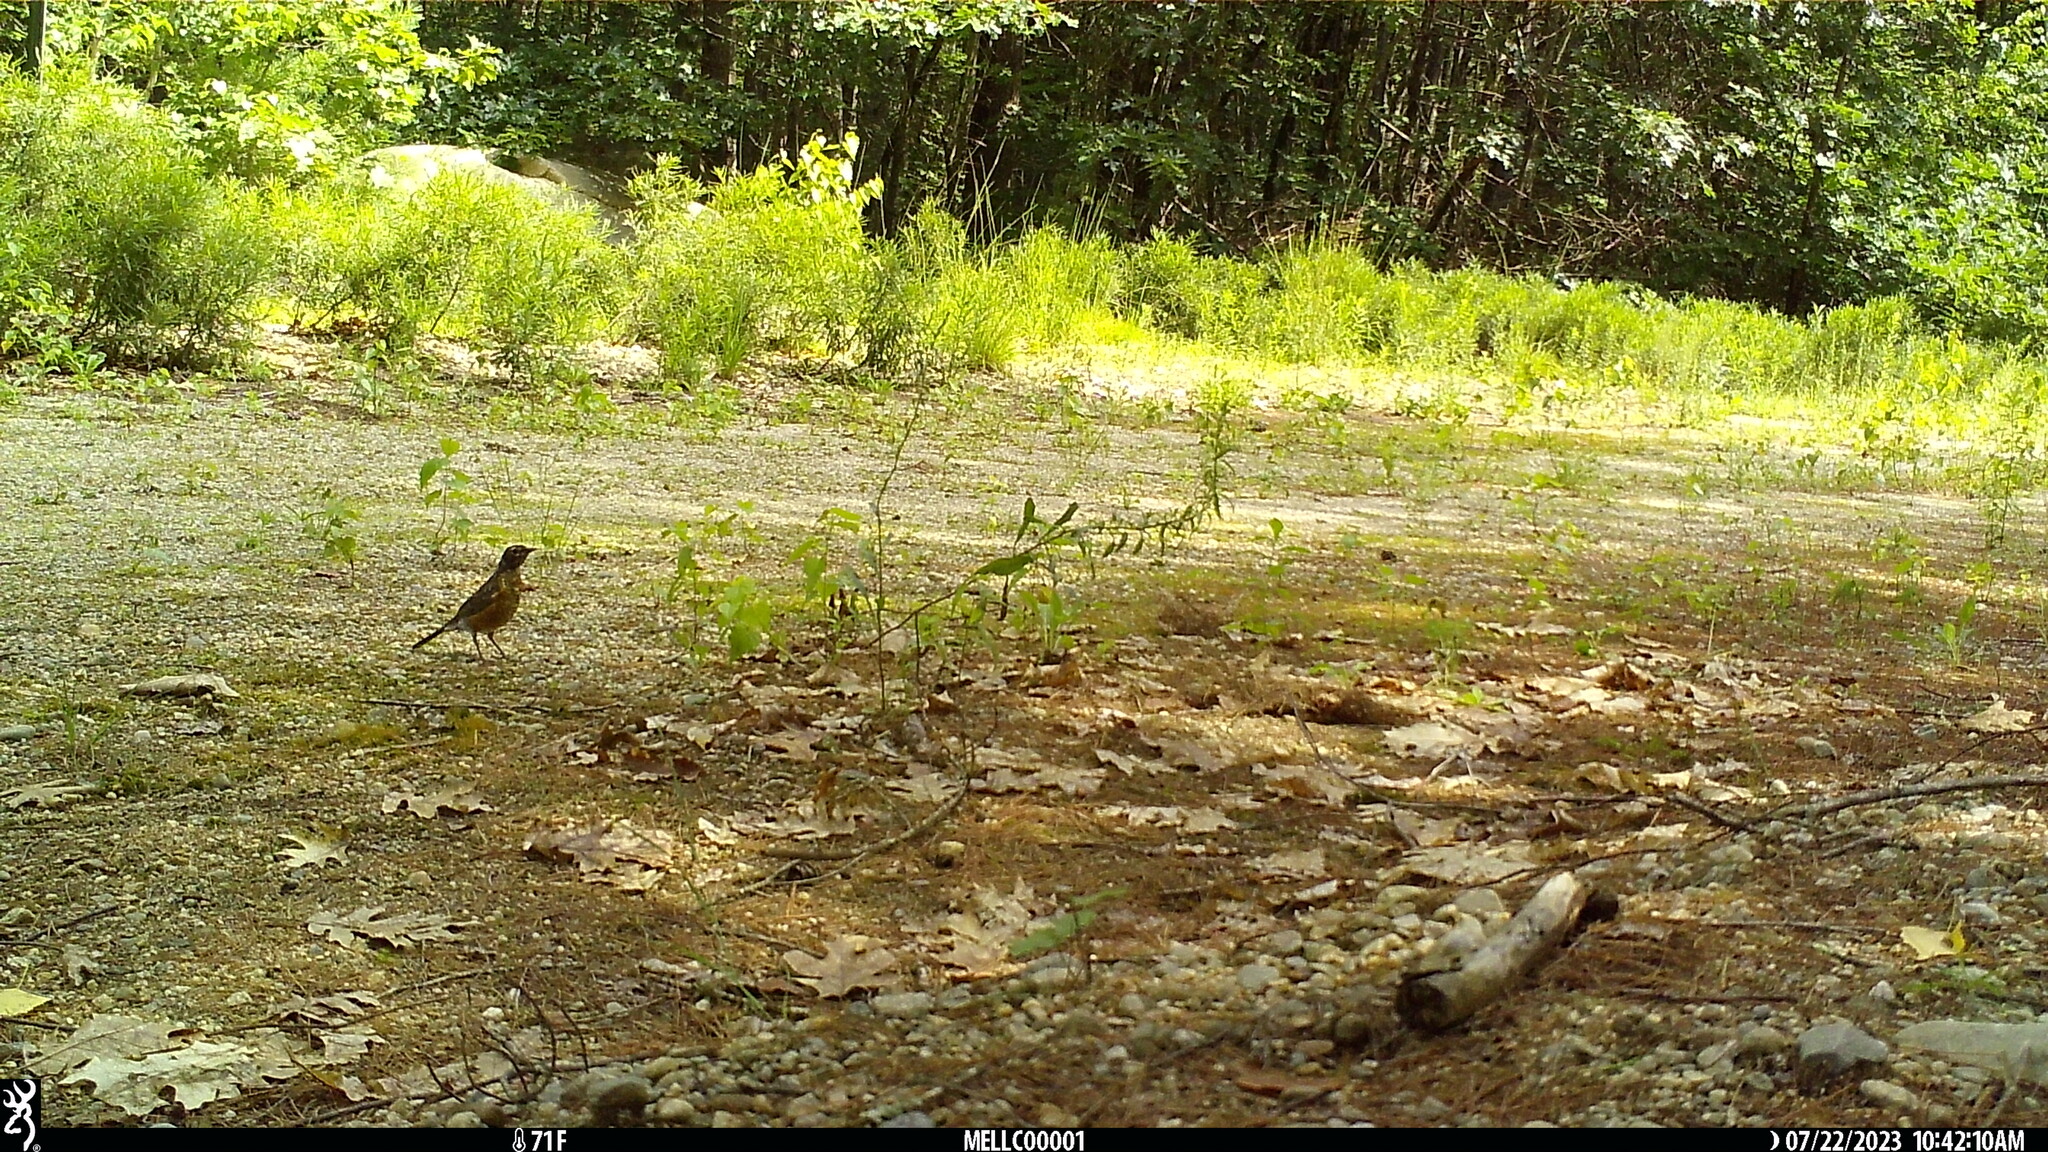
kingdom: Animalia
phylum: Chordata
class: Aves
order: Passeriformes
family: Turdidae
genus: Turdus
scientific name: Turdus migratorius
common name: American robin
